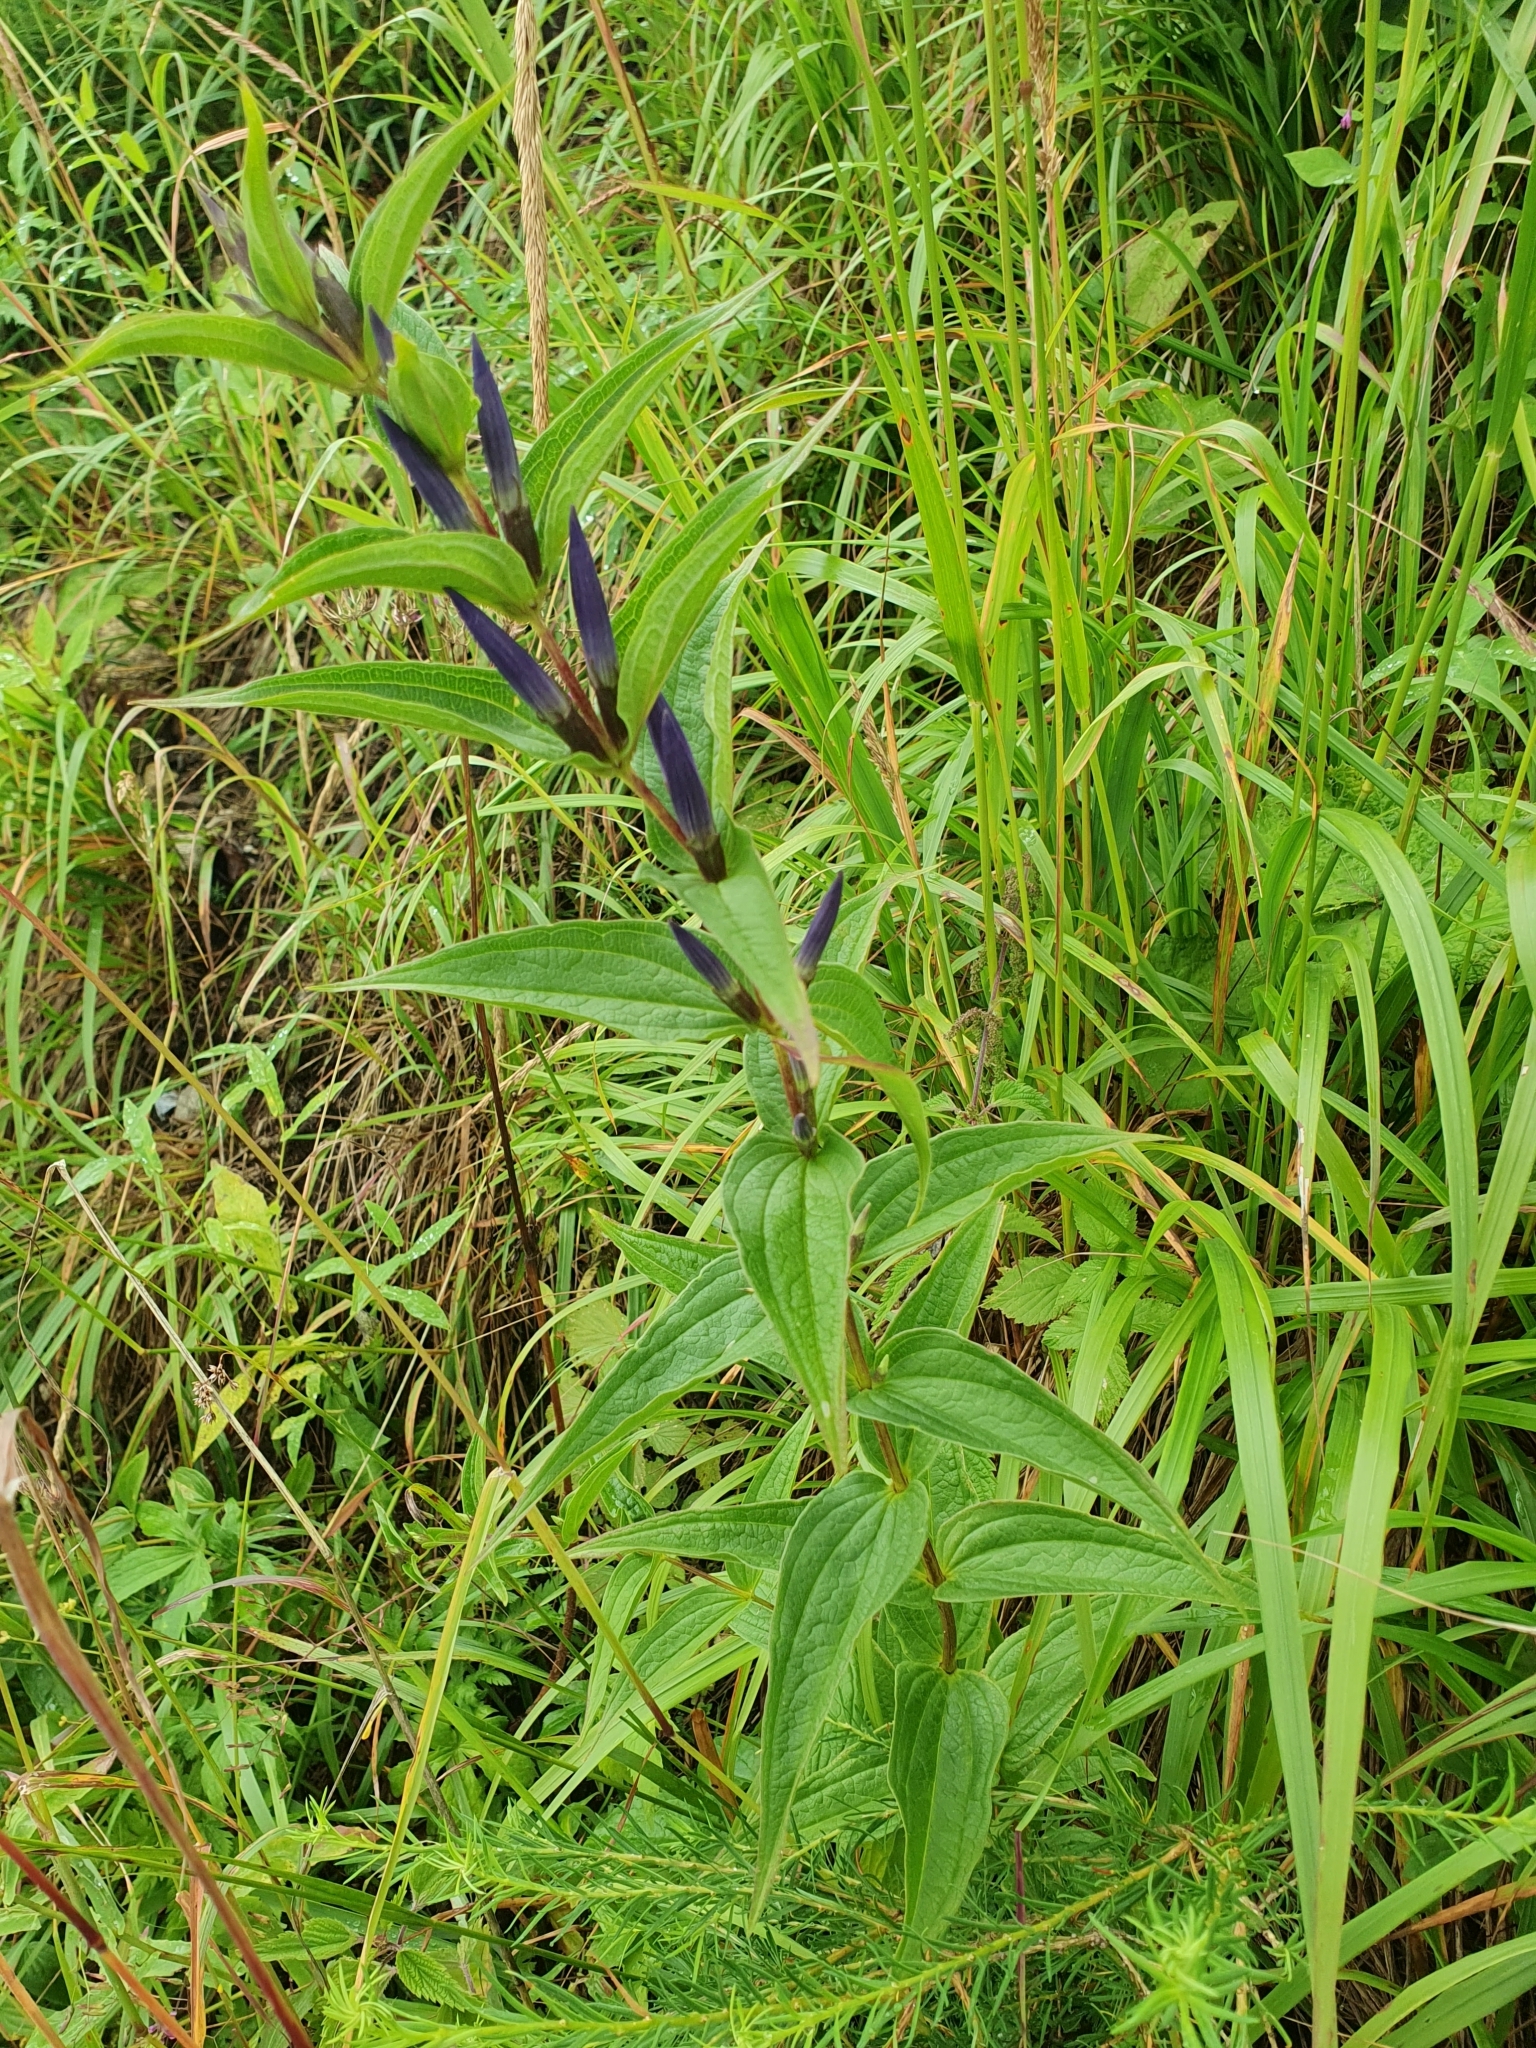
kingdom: Plantae
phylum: Tracheophyta
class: Magnoliopsida
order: Gentianales
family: Gentianaceae
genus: Gentiana
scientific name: Gentiana asclepiadea
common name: Willow gentian
